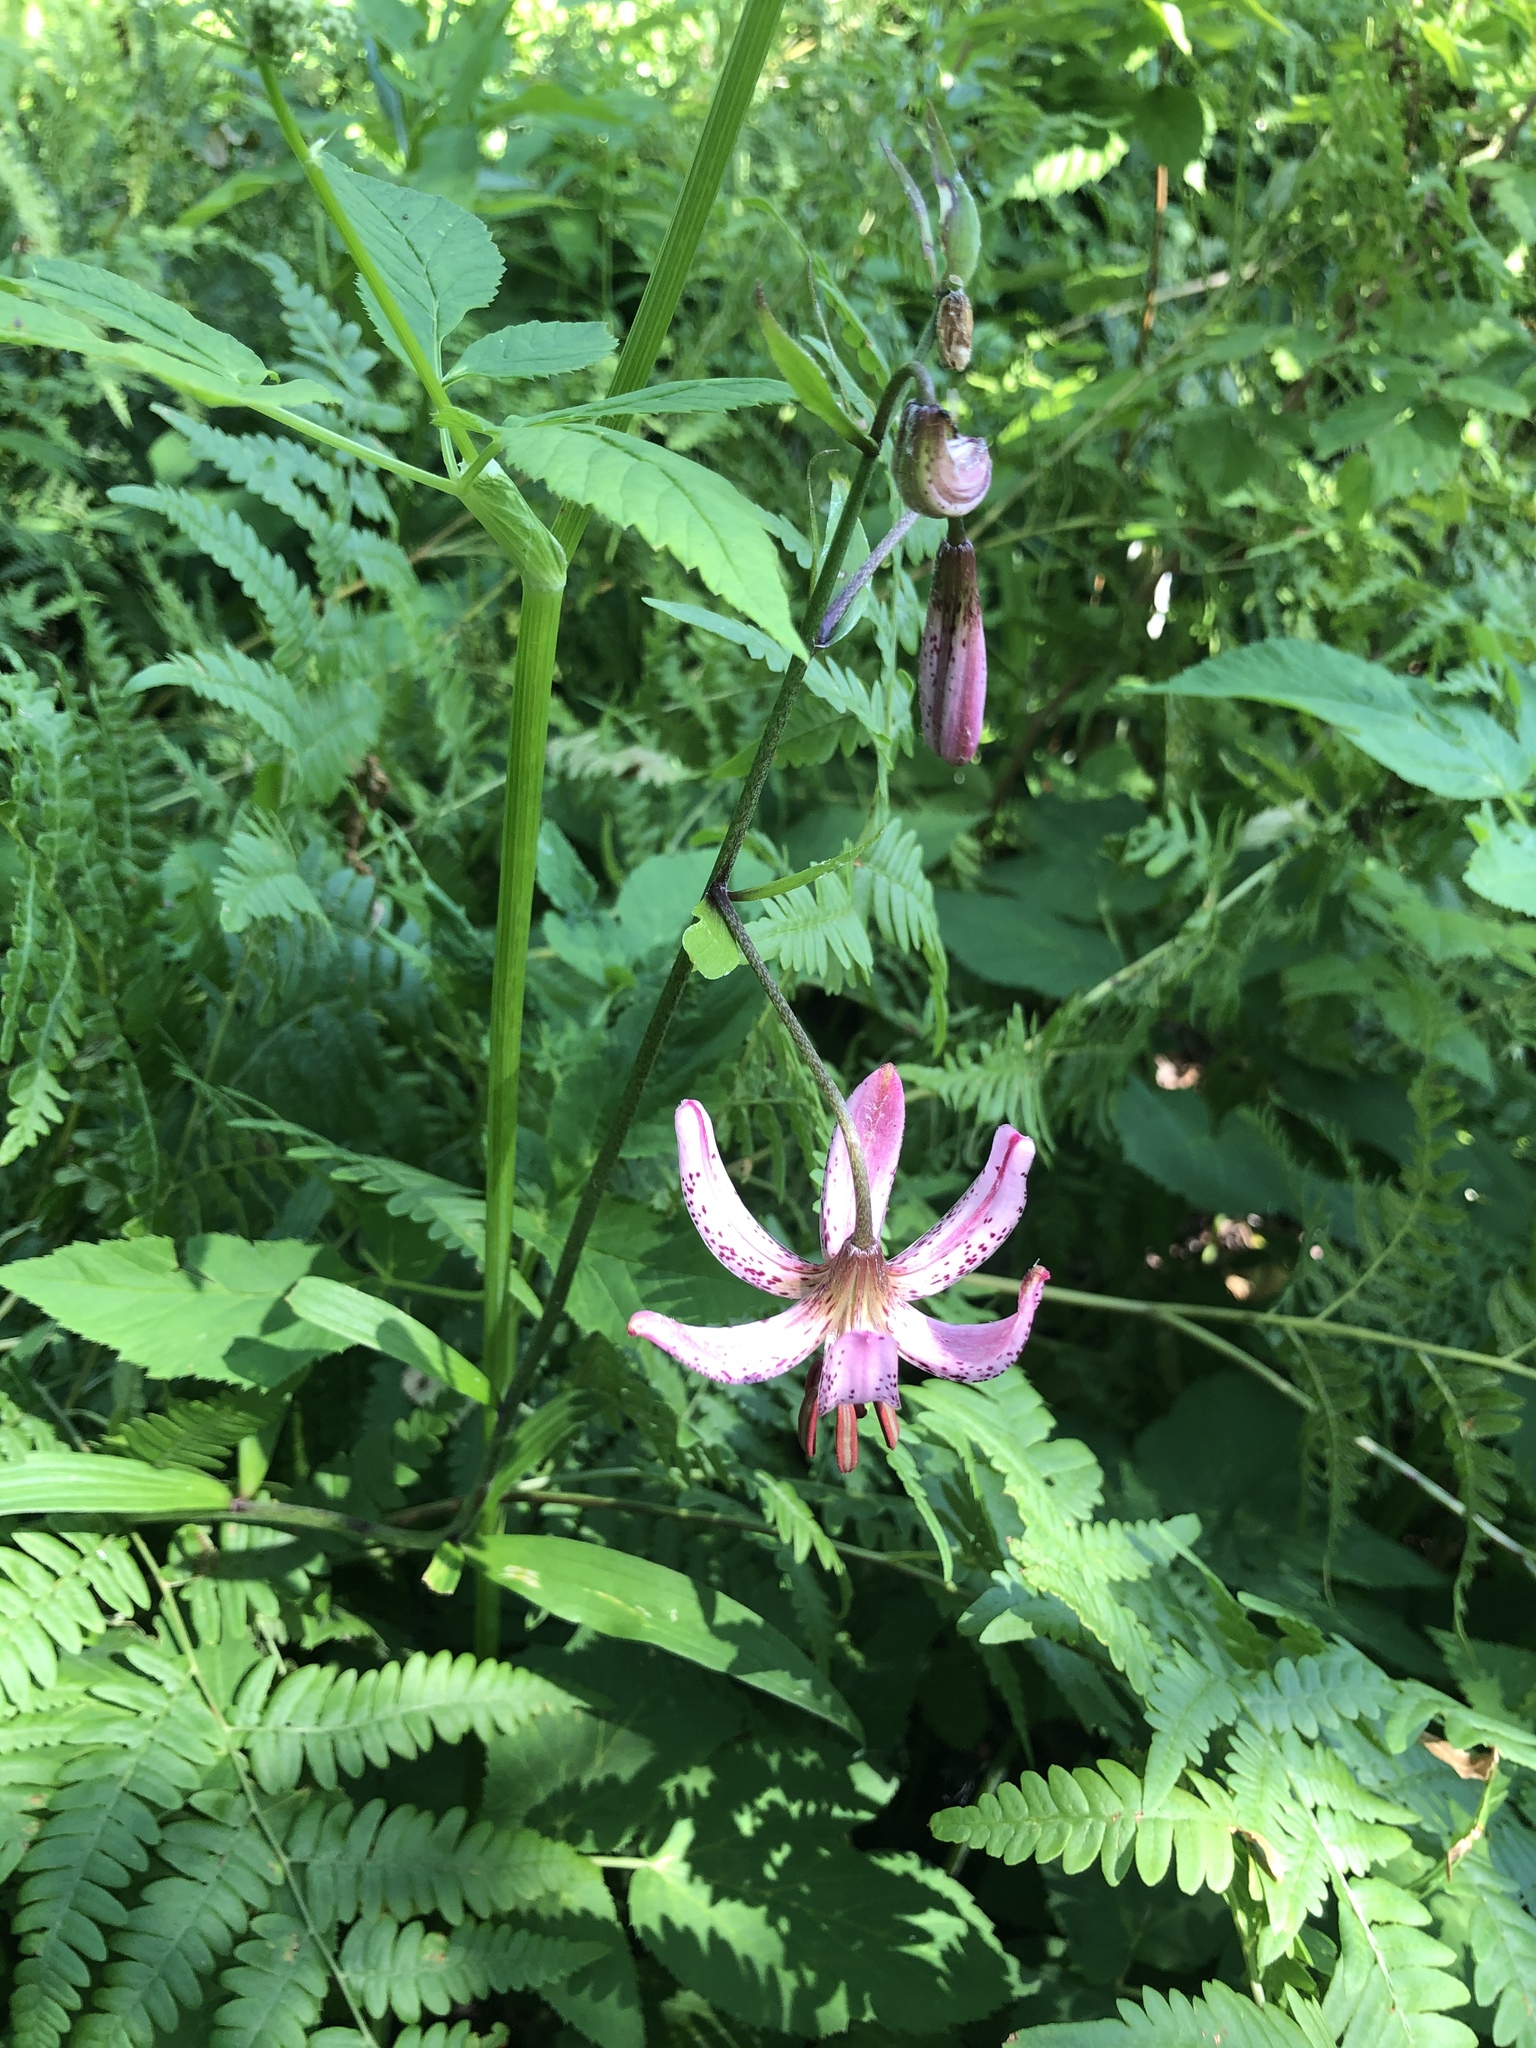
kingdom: Plantae
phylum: Tracheophyta
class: Liliopsida
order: Liliales
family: Liliaceae
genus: Lilium
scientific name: Lilium martagon
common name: Martagon lily
